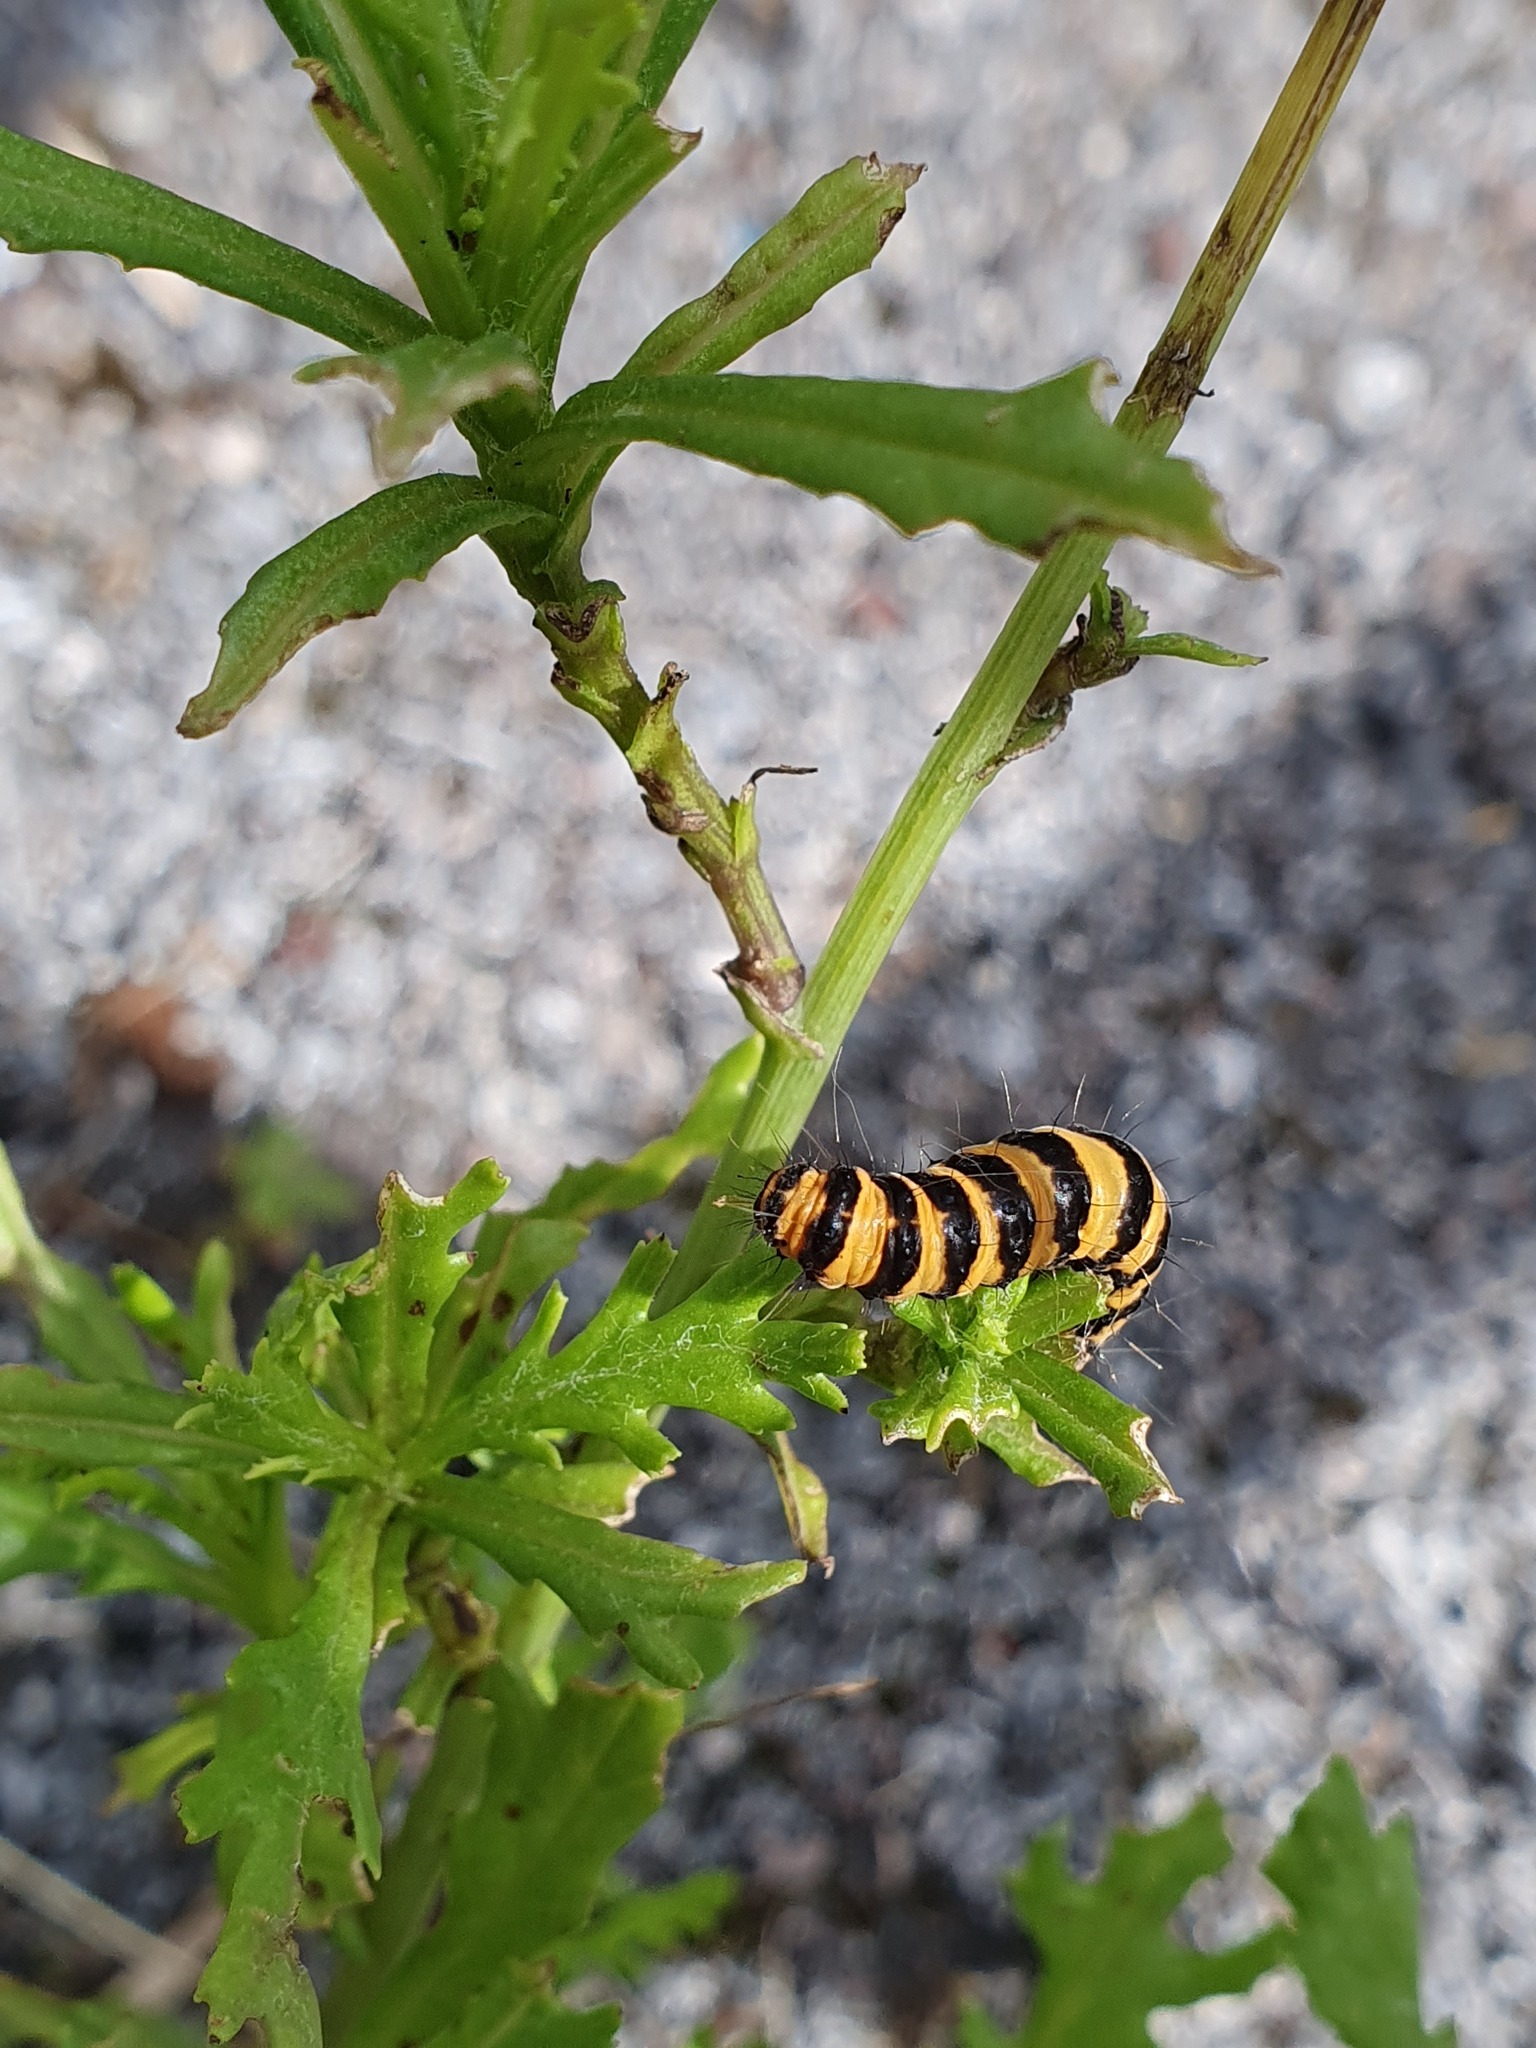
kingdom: Animalia
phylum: Arthropoda
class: Insecta
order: Lepidoptera
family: Erebidae
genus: Tyria
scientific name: Tyria jacobaeae
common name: Cinnabar
